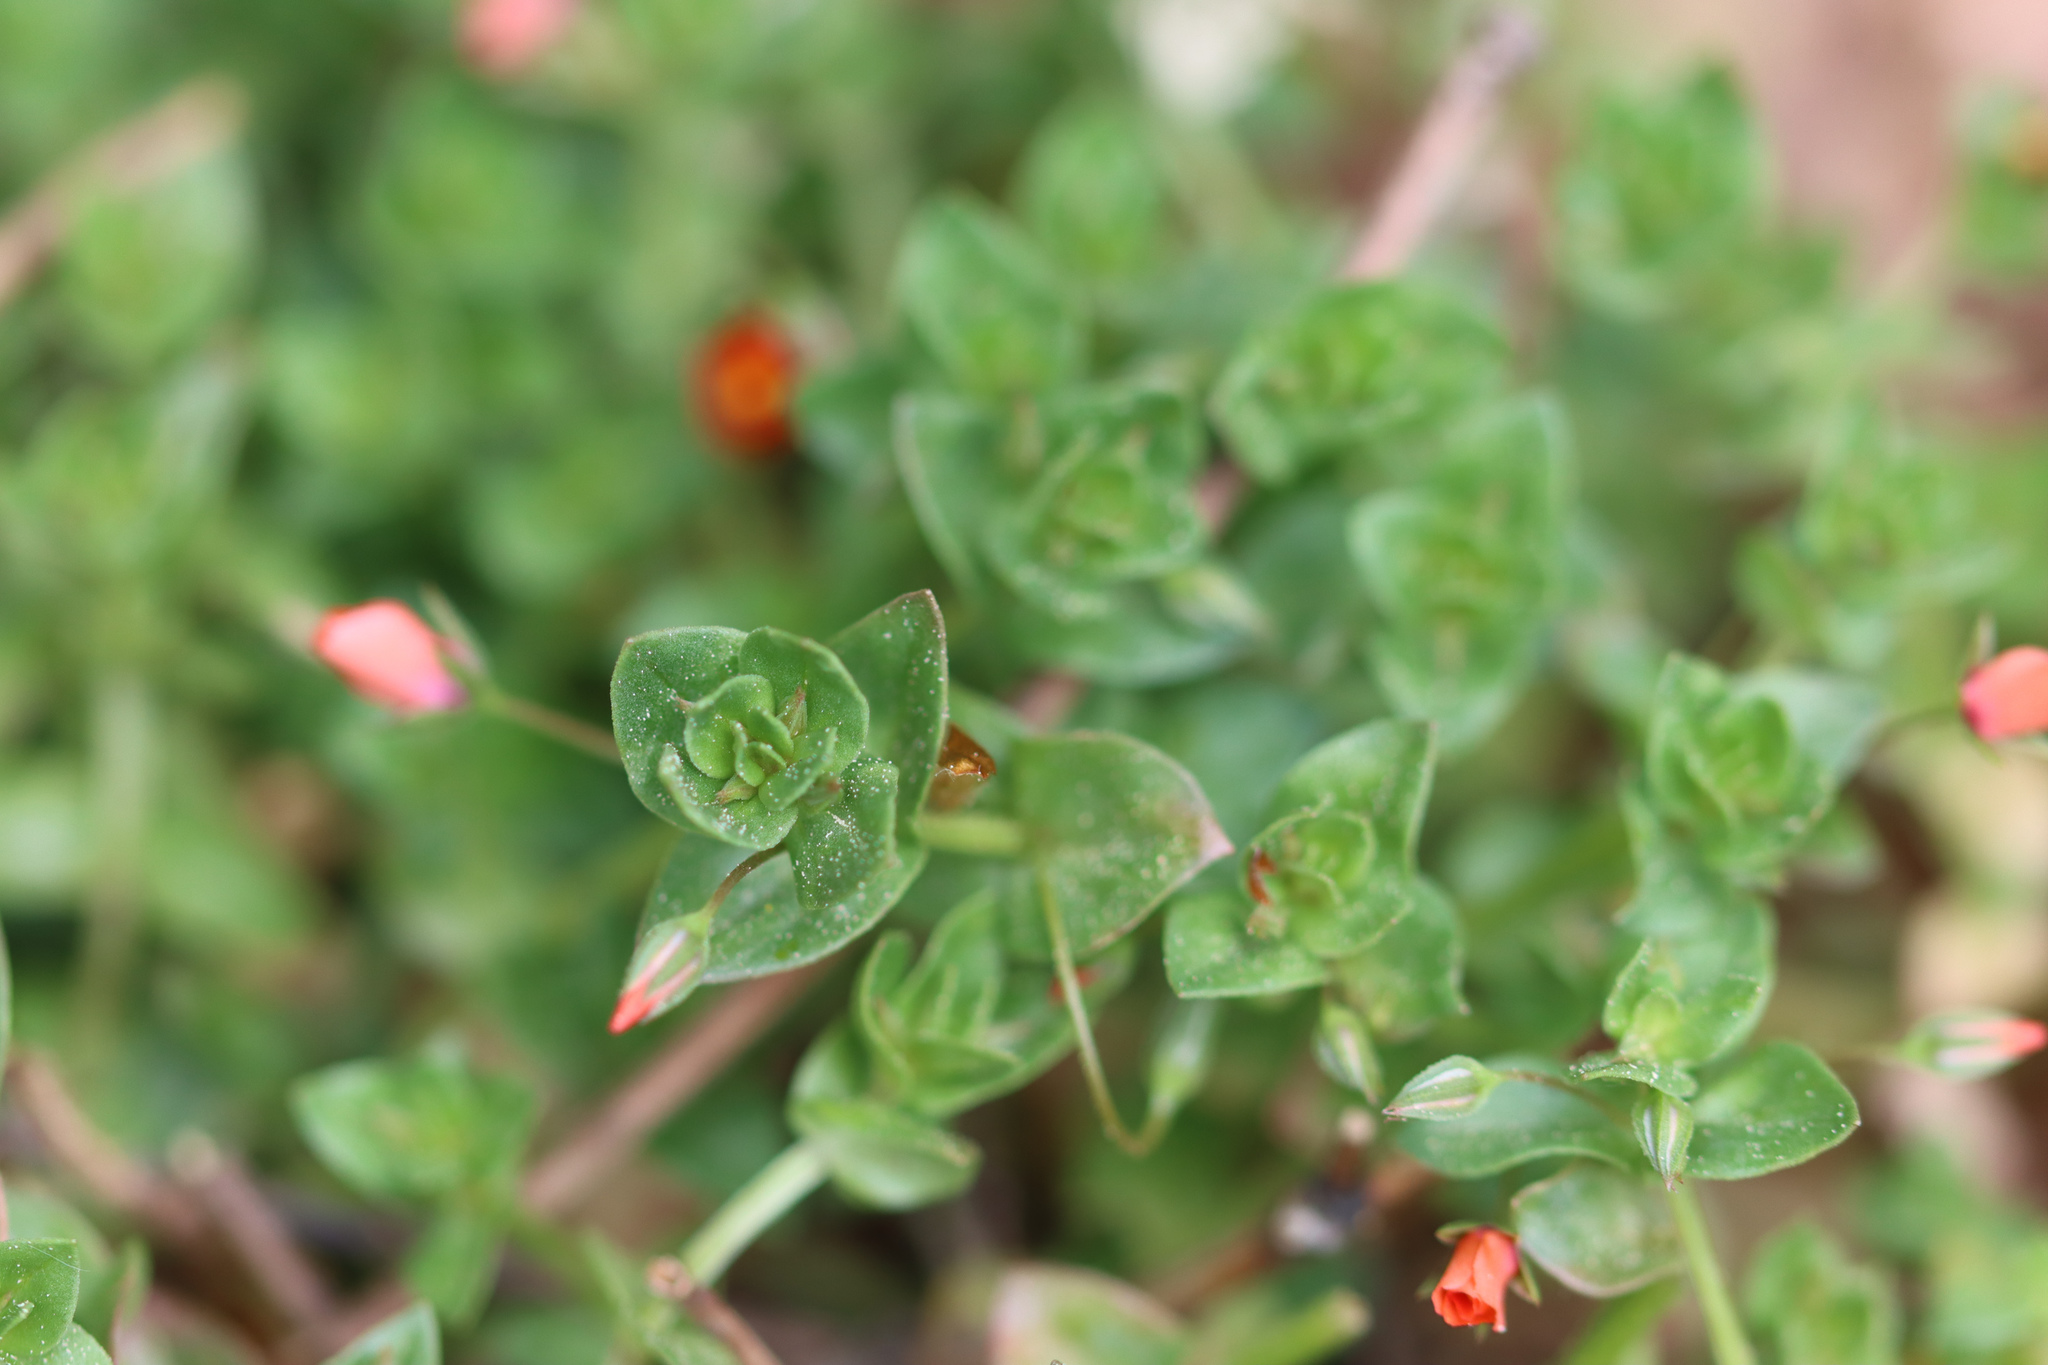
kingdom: Plantae
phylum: Tracheophyta
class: Magnoliopsida
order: Ericales
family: Primulaceae
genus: Lysimachia
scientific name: Lysimachia arvensis
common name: Scarlet pimpernel
